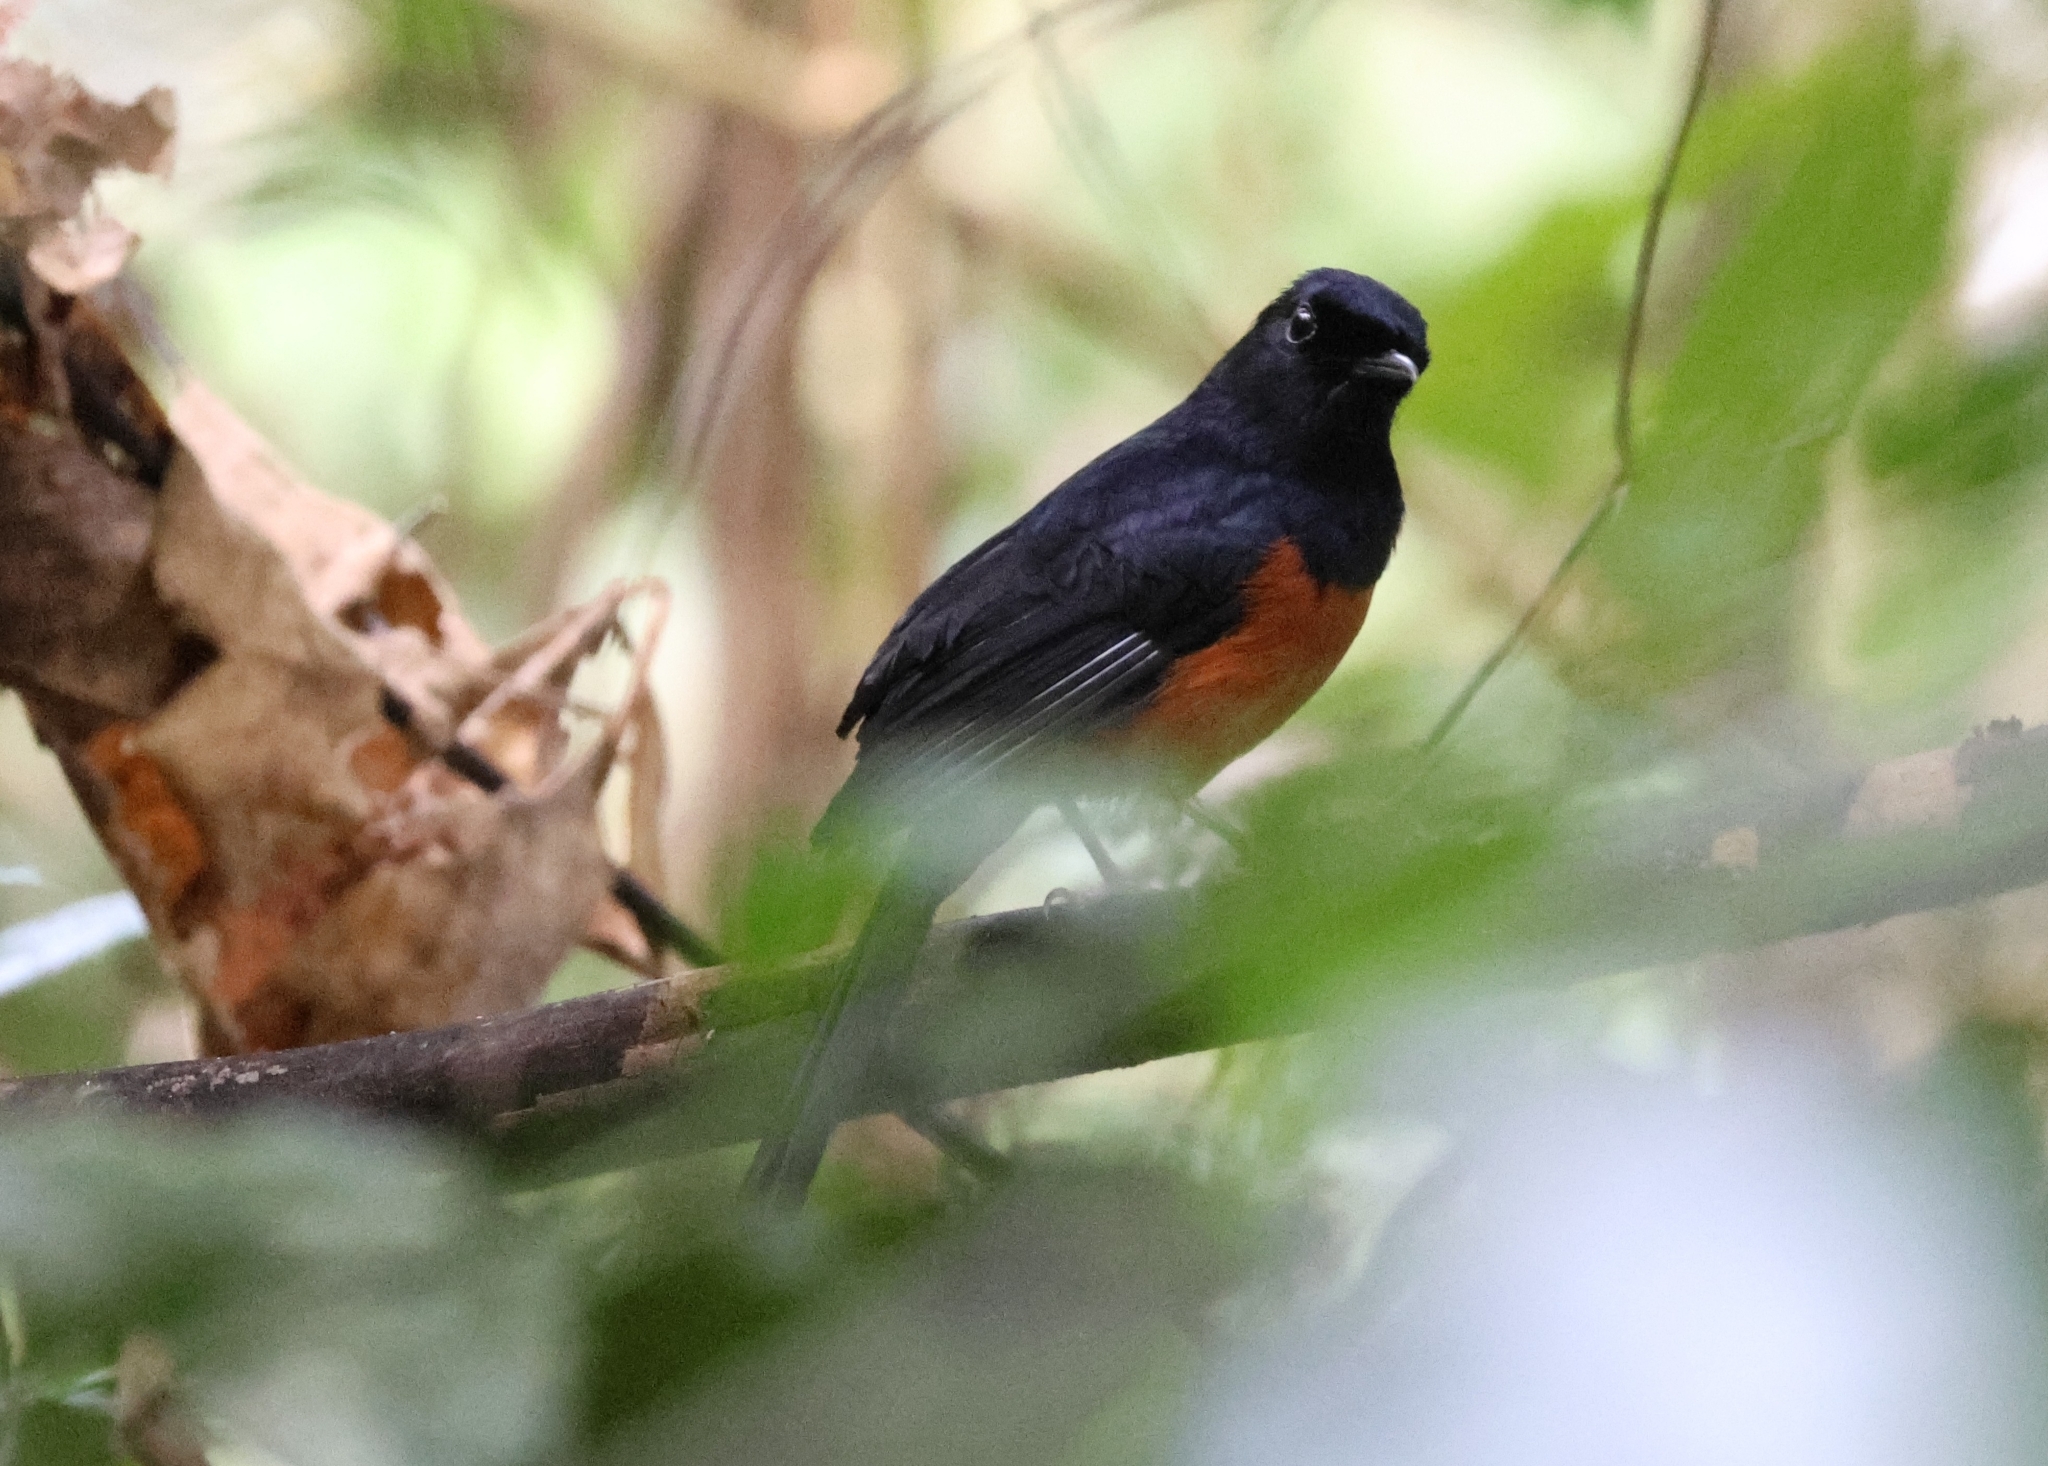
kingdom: Animalia
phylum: Chordata
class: Aves
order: Passeriformes
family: Muscicapidae
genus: Copsychus
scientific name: Copsychus malabaricus
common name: White-rumped shama
